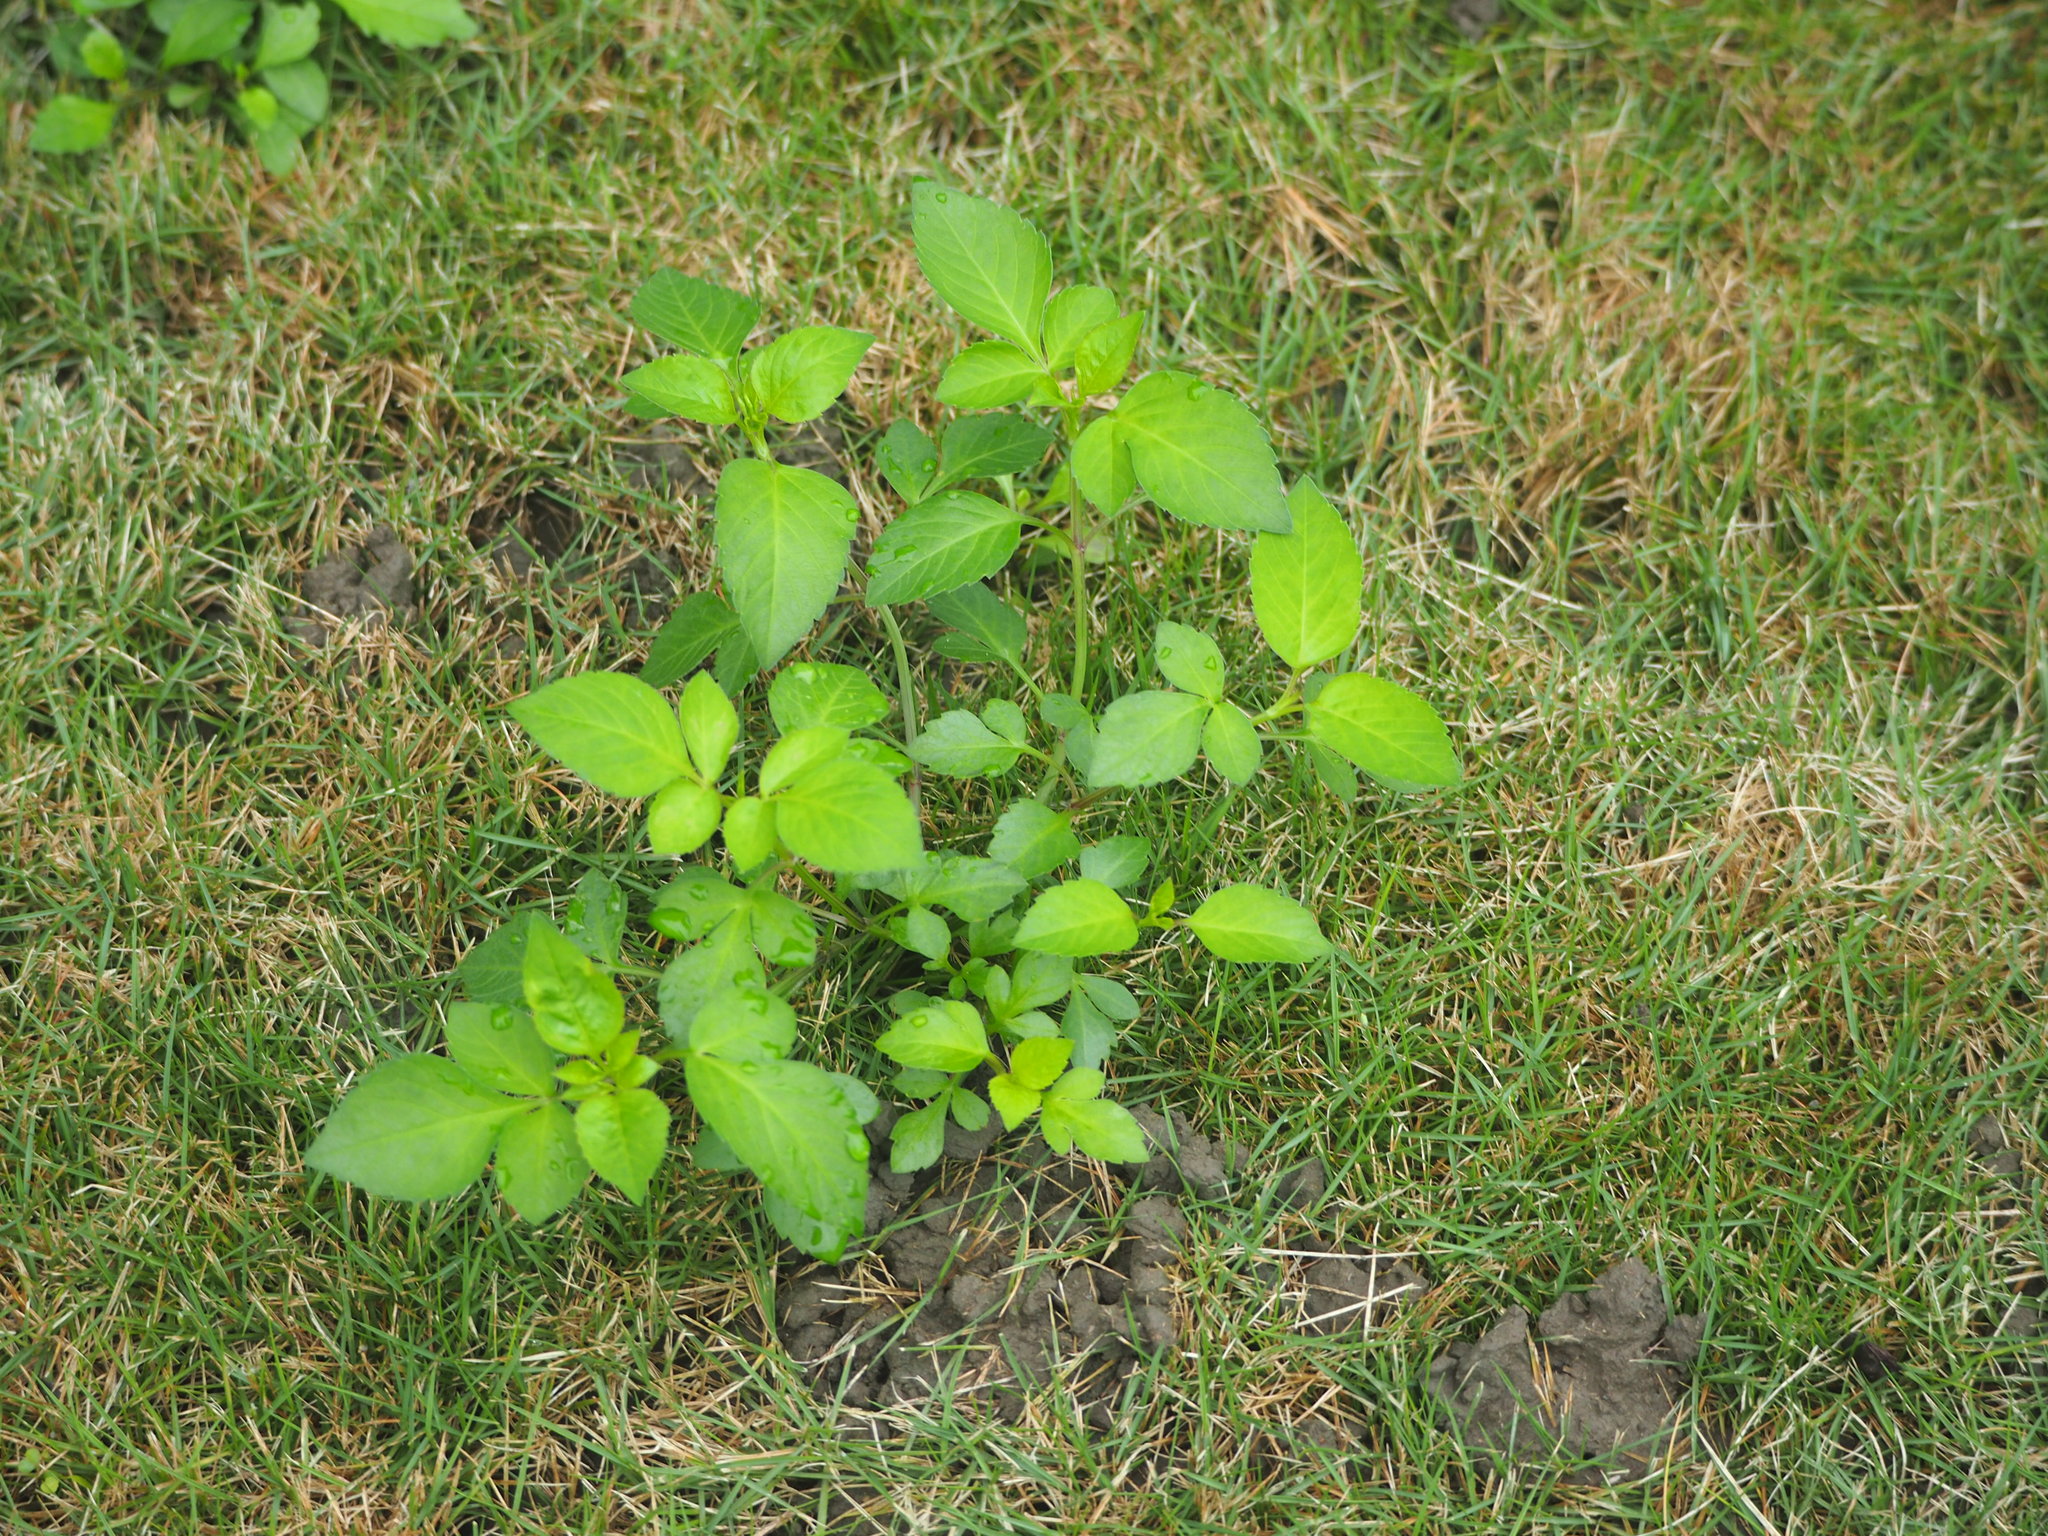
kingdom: Plantae
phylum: Tracheophyta
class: Magnoliopsida
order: Asterales
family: Asteraceae
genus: Bidens
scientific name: Bidens alba
